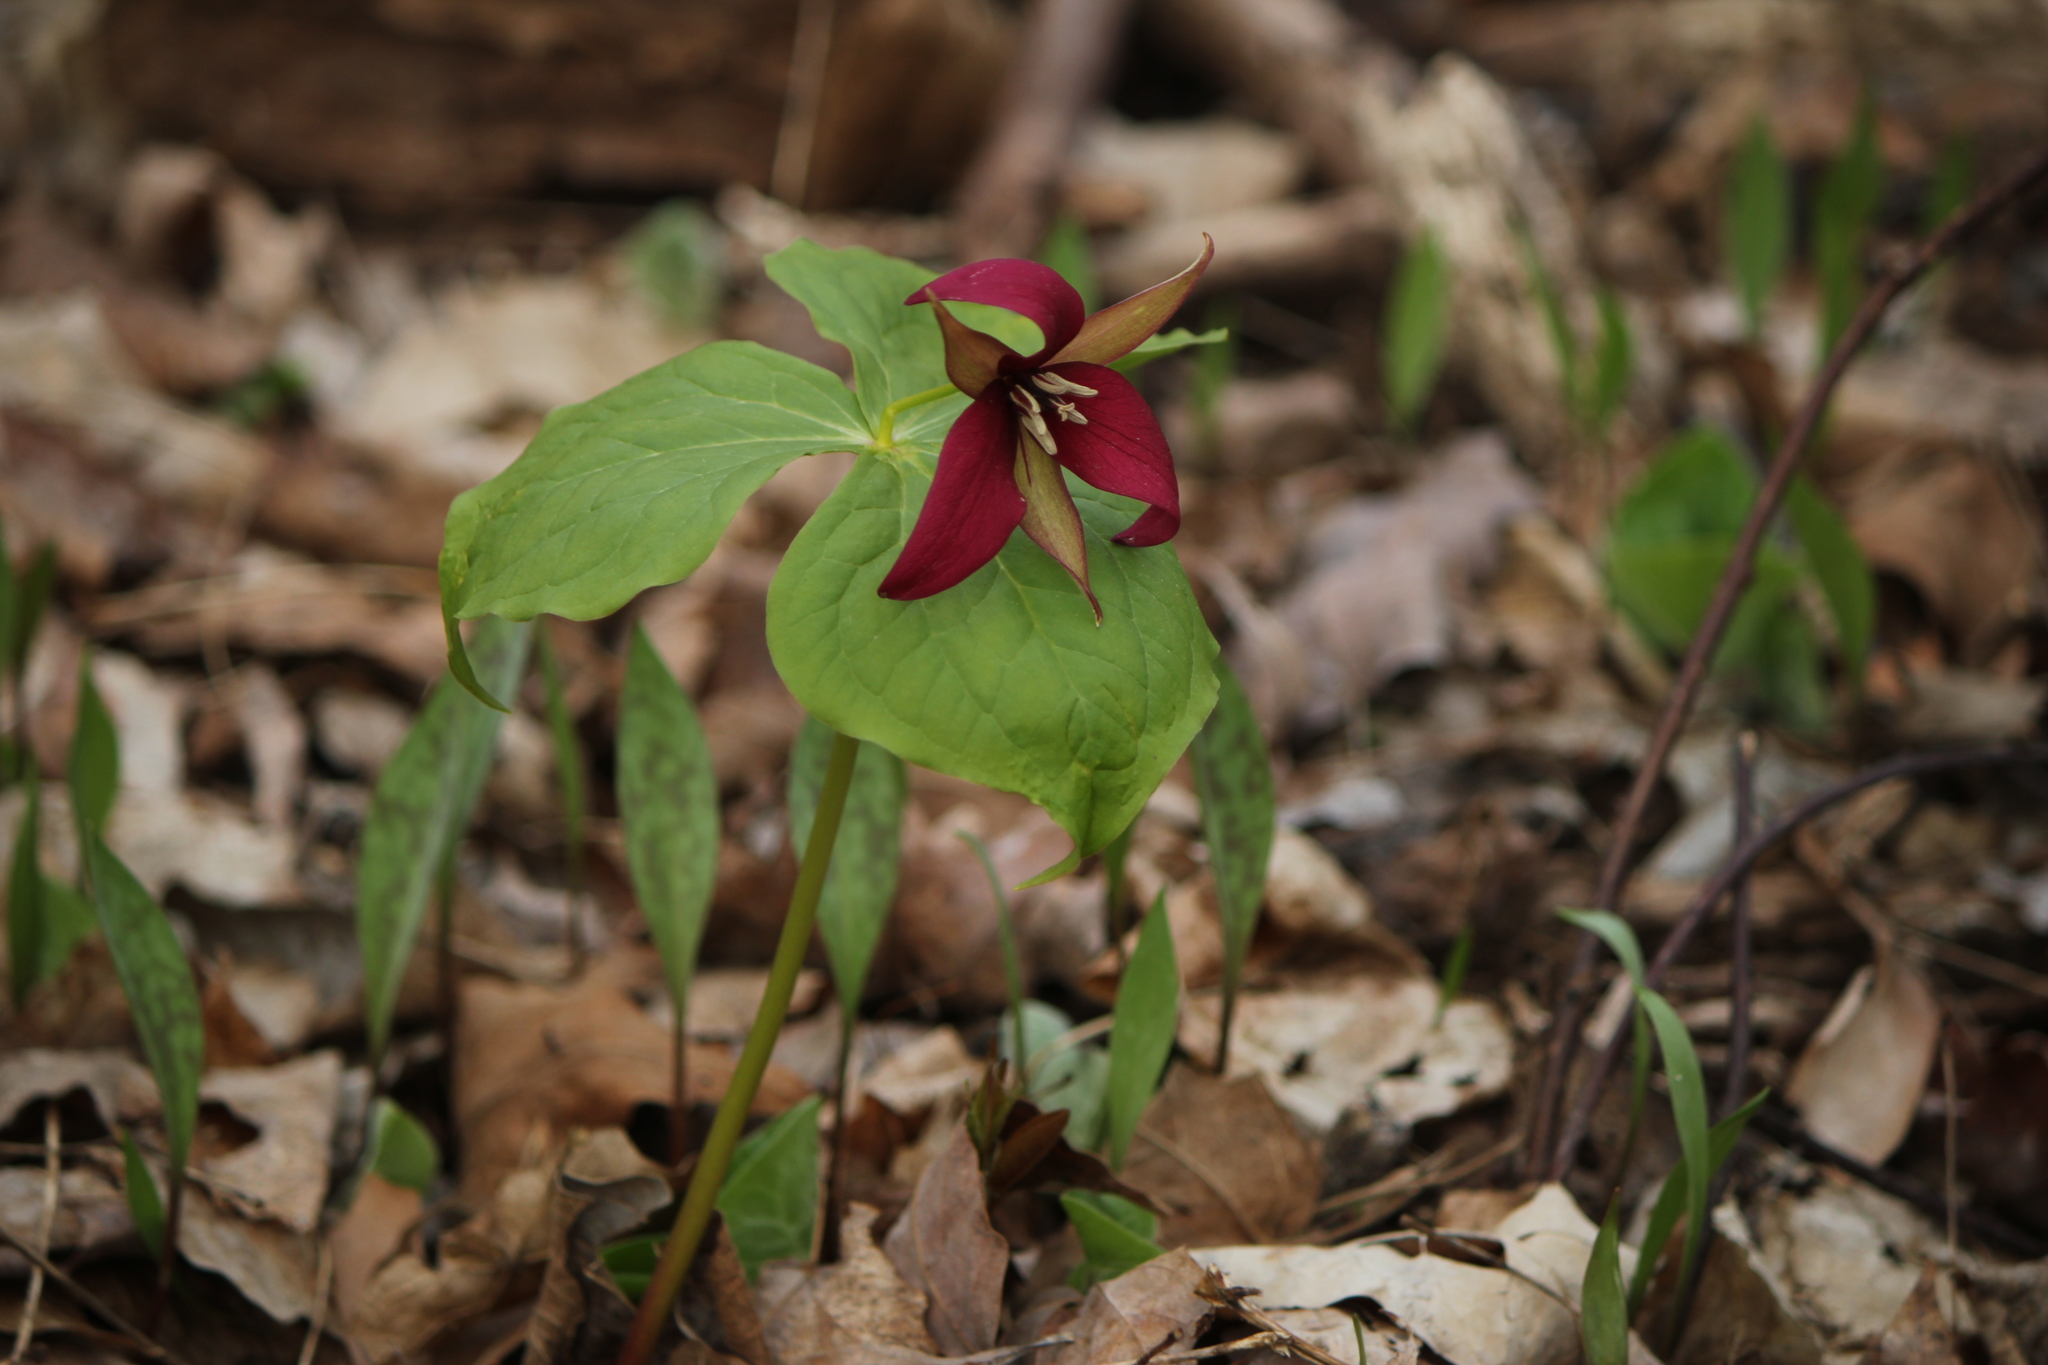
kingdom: Plantae
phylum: Tracheophyta
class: Liliopsida
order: Liliales
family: Melanthiaceae
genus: Trillium
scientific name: Trillium erectum
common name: Purple trillium
